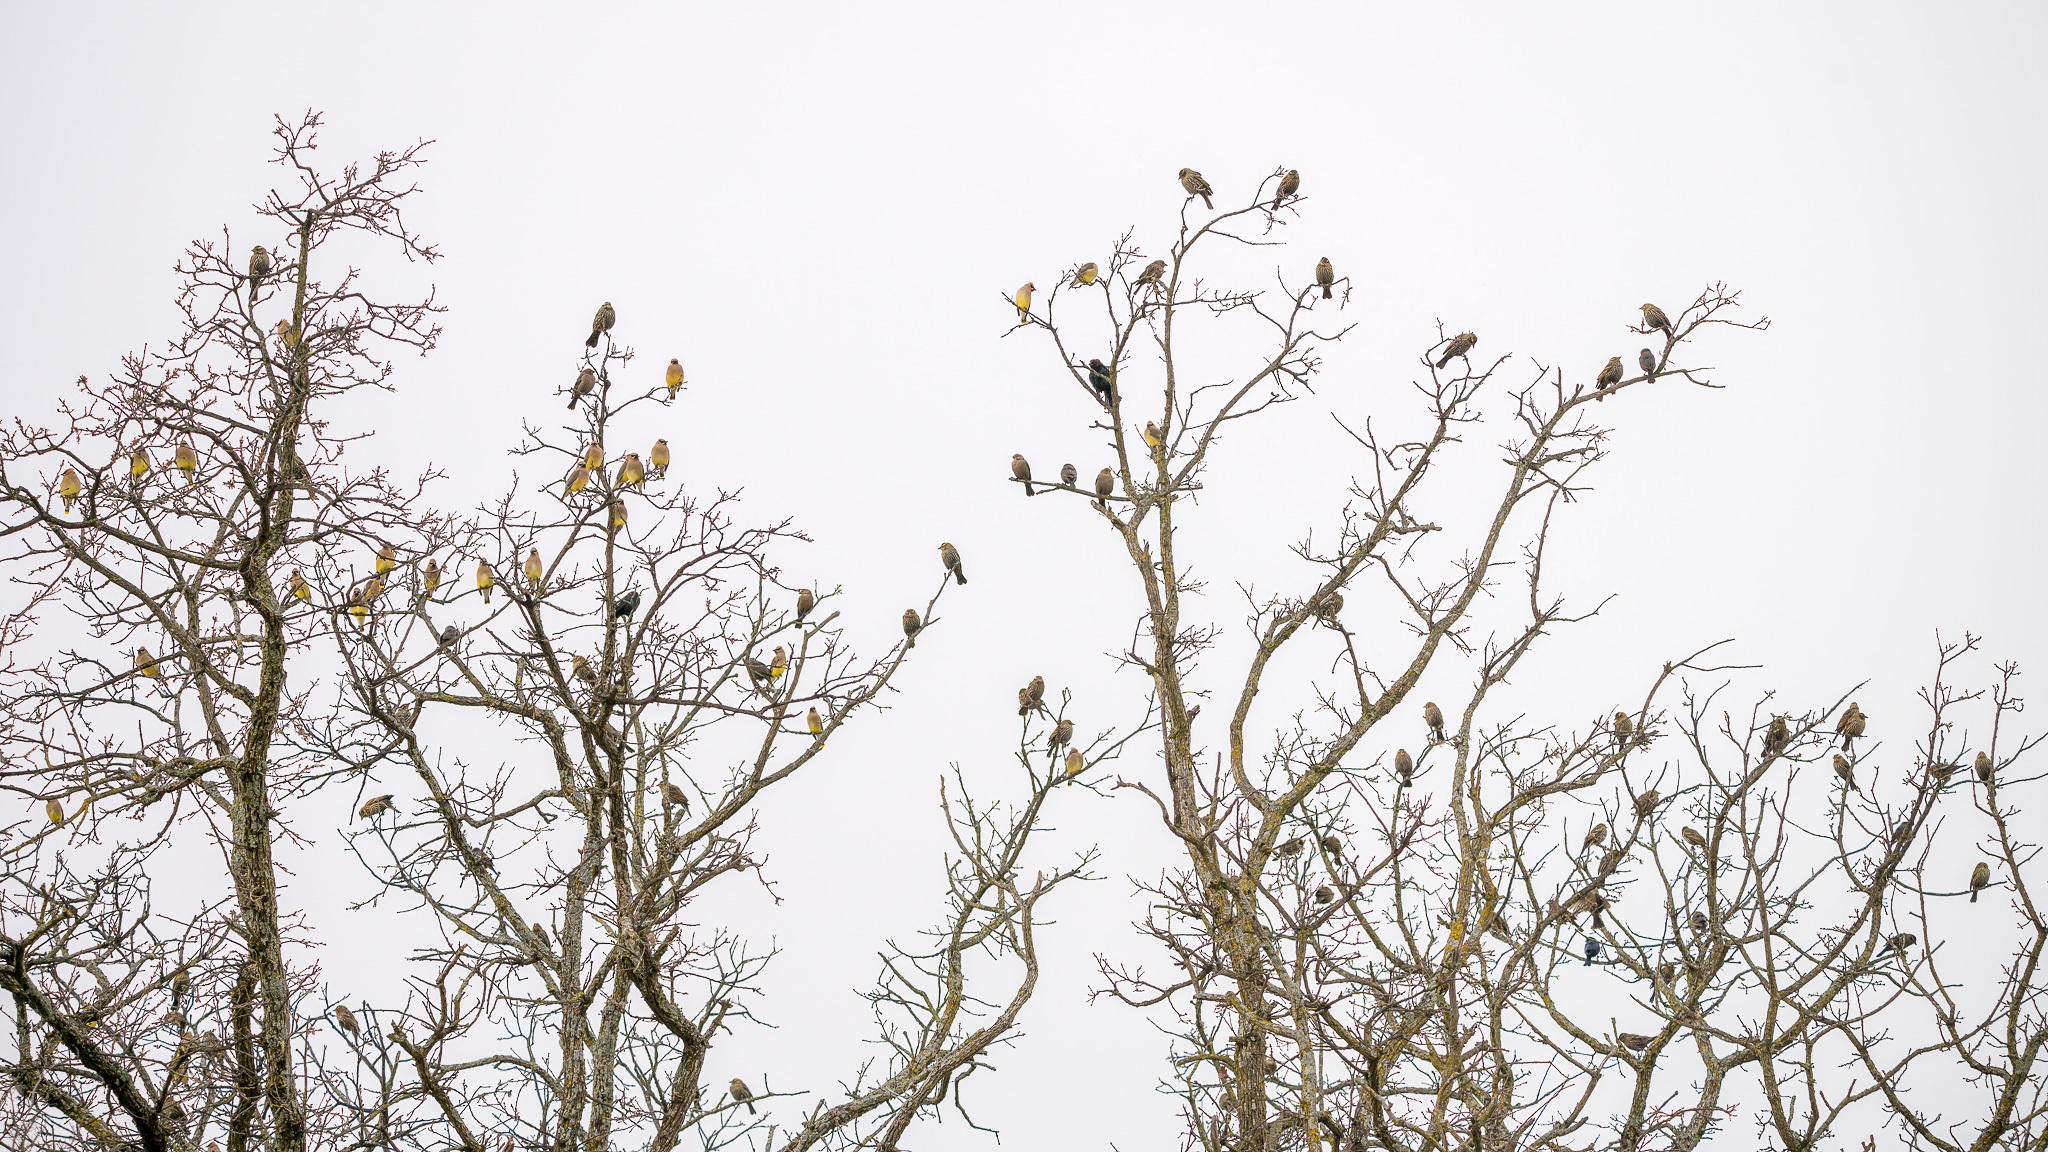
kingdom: Animalia
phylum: Chordata
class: Aves
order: Passeriformes
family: Bombycillidae
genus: Bombycilla
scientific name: Bombycilla cedrorum
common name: Cedar waxwing
